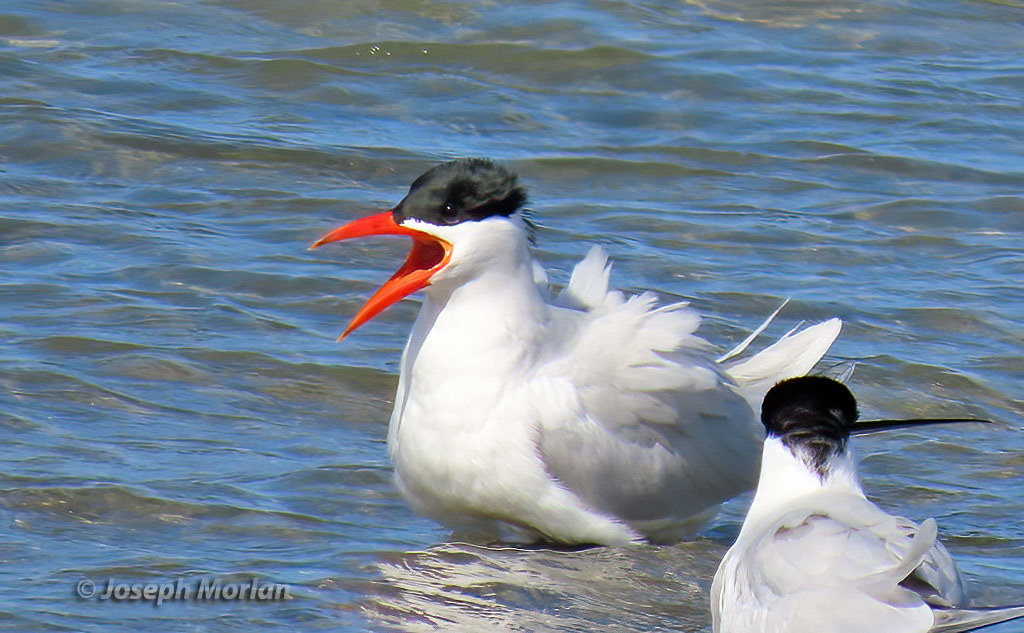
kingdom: Animalia
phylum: Chordata
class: Aves
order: Charadriiformes
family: Laridae
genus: Hydroprogne
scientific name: Hydroprogne caspia
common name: Caspian tern
